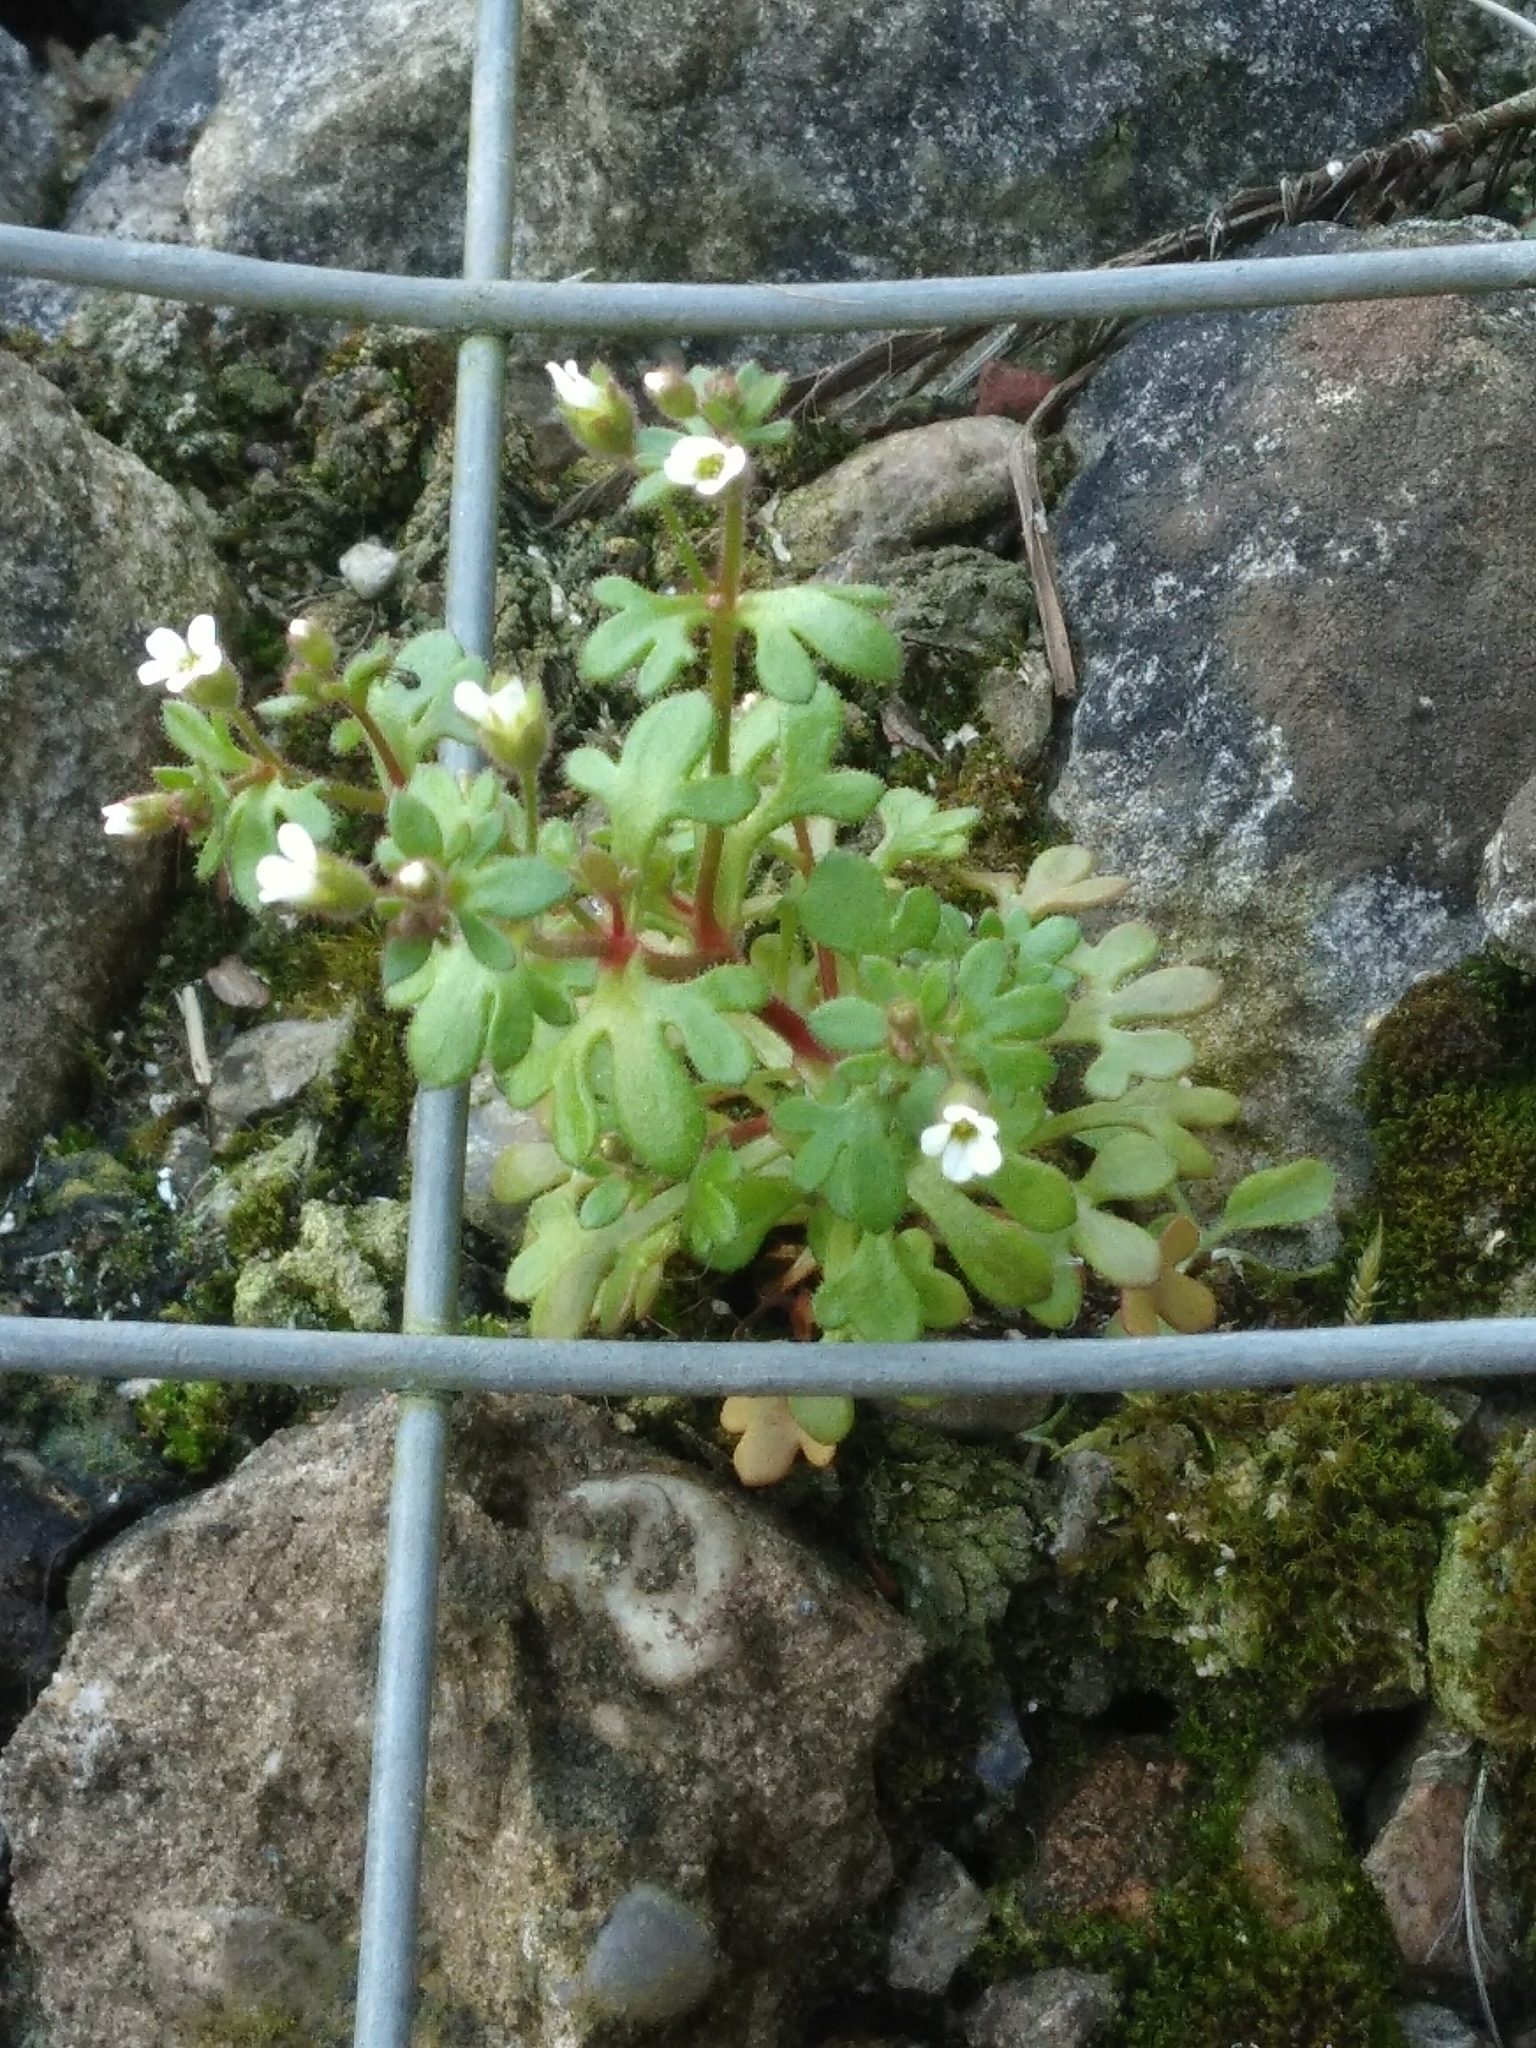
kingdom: Plantae
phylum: Tracheophyta
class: Magnoliopsida
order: Saxifragales
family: Saxifragaceae
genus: Saxifraga
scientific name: Saxifraga tridactylites
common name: Rue-leaved saxifrage
